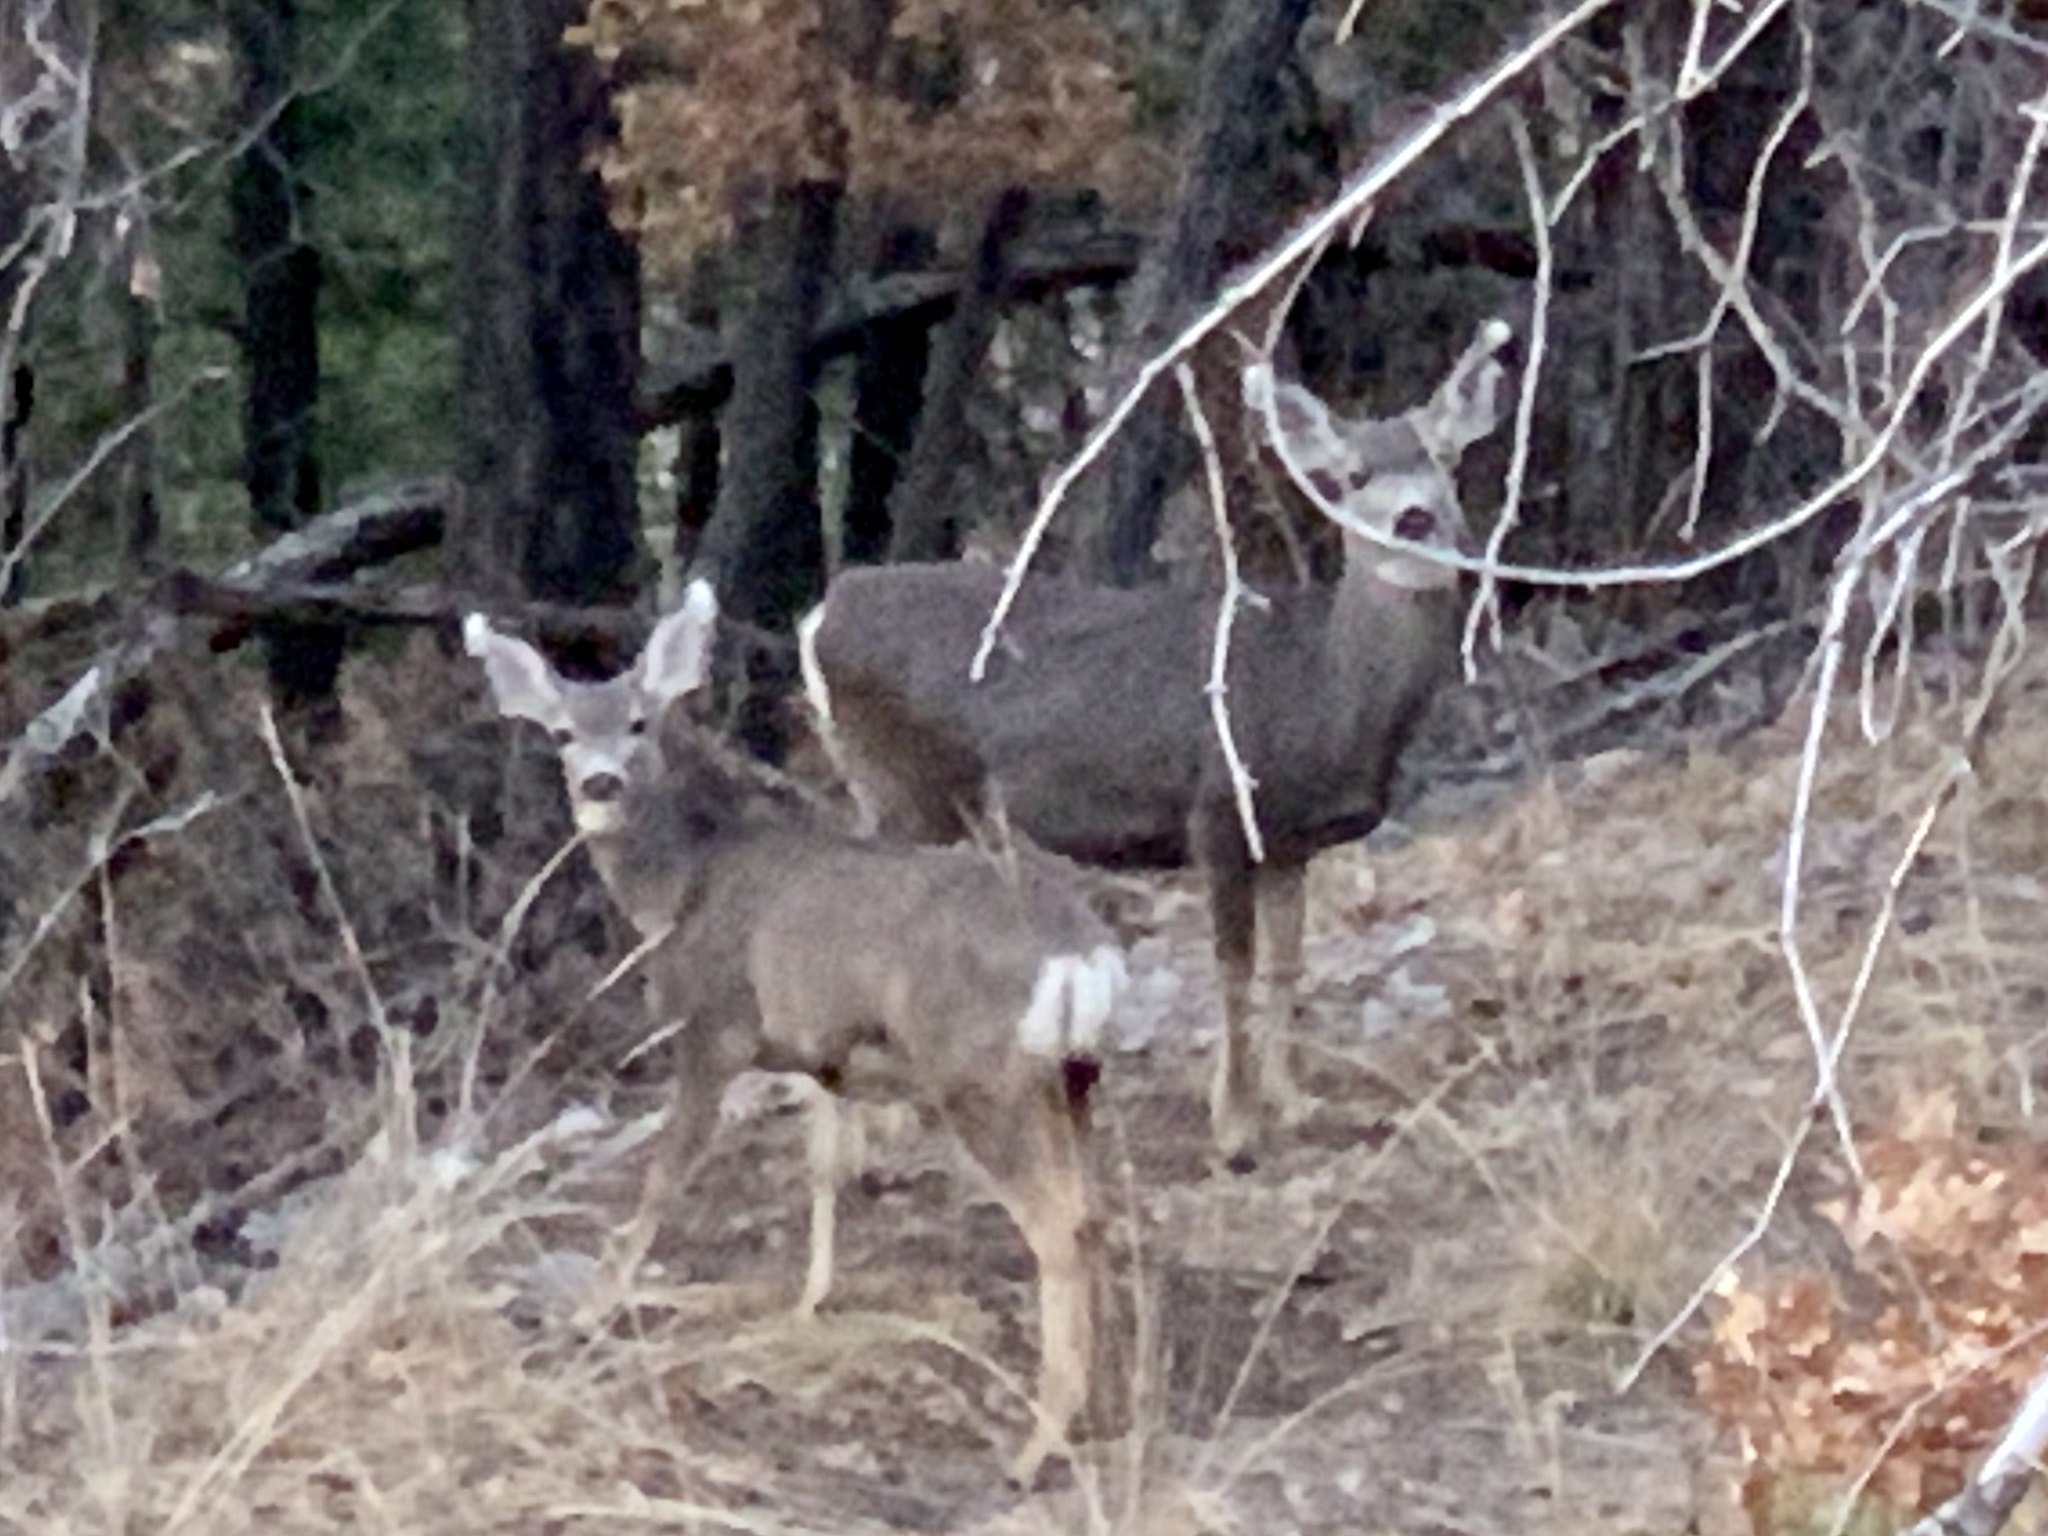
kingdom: Animalia
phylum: Chordata
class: Mammalia
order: Artiodactyla
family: Cervidae
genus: Odocoileus
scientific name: Odocoileus hemionus
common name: Mule deer
